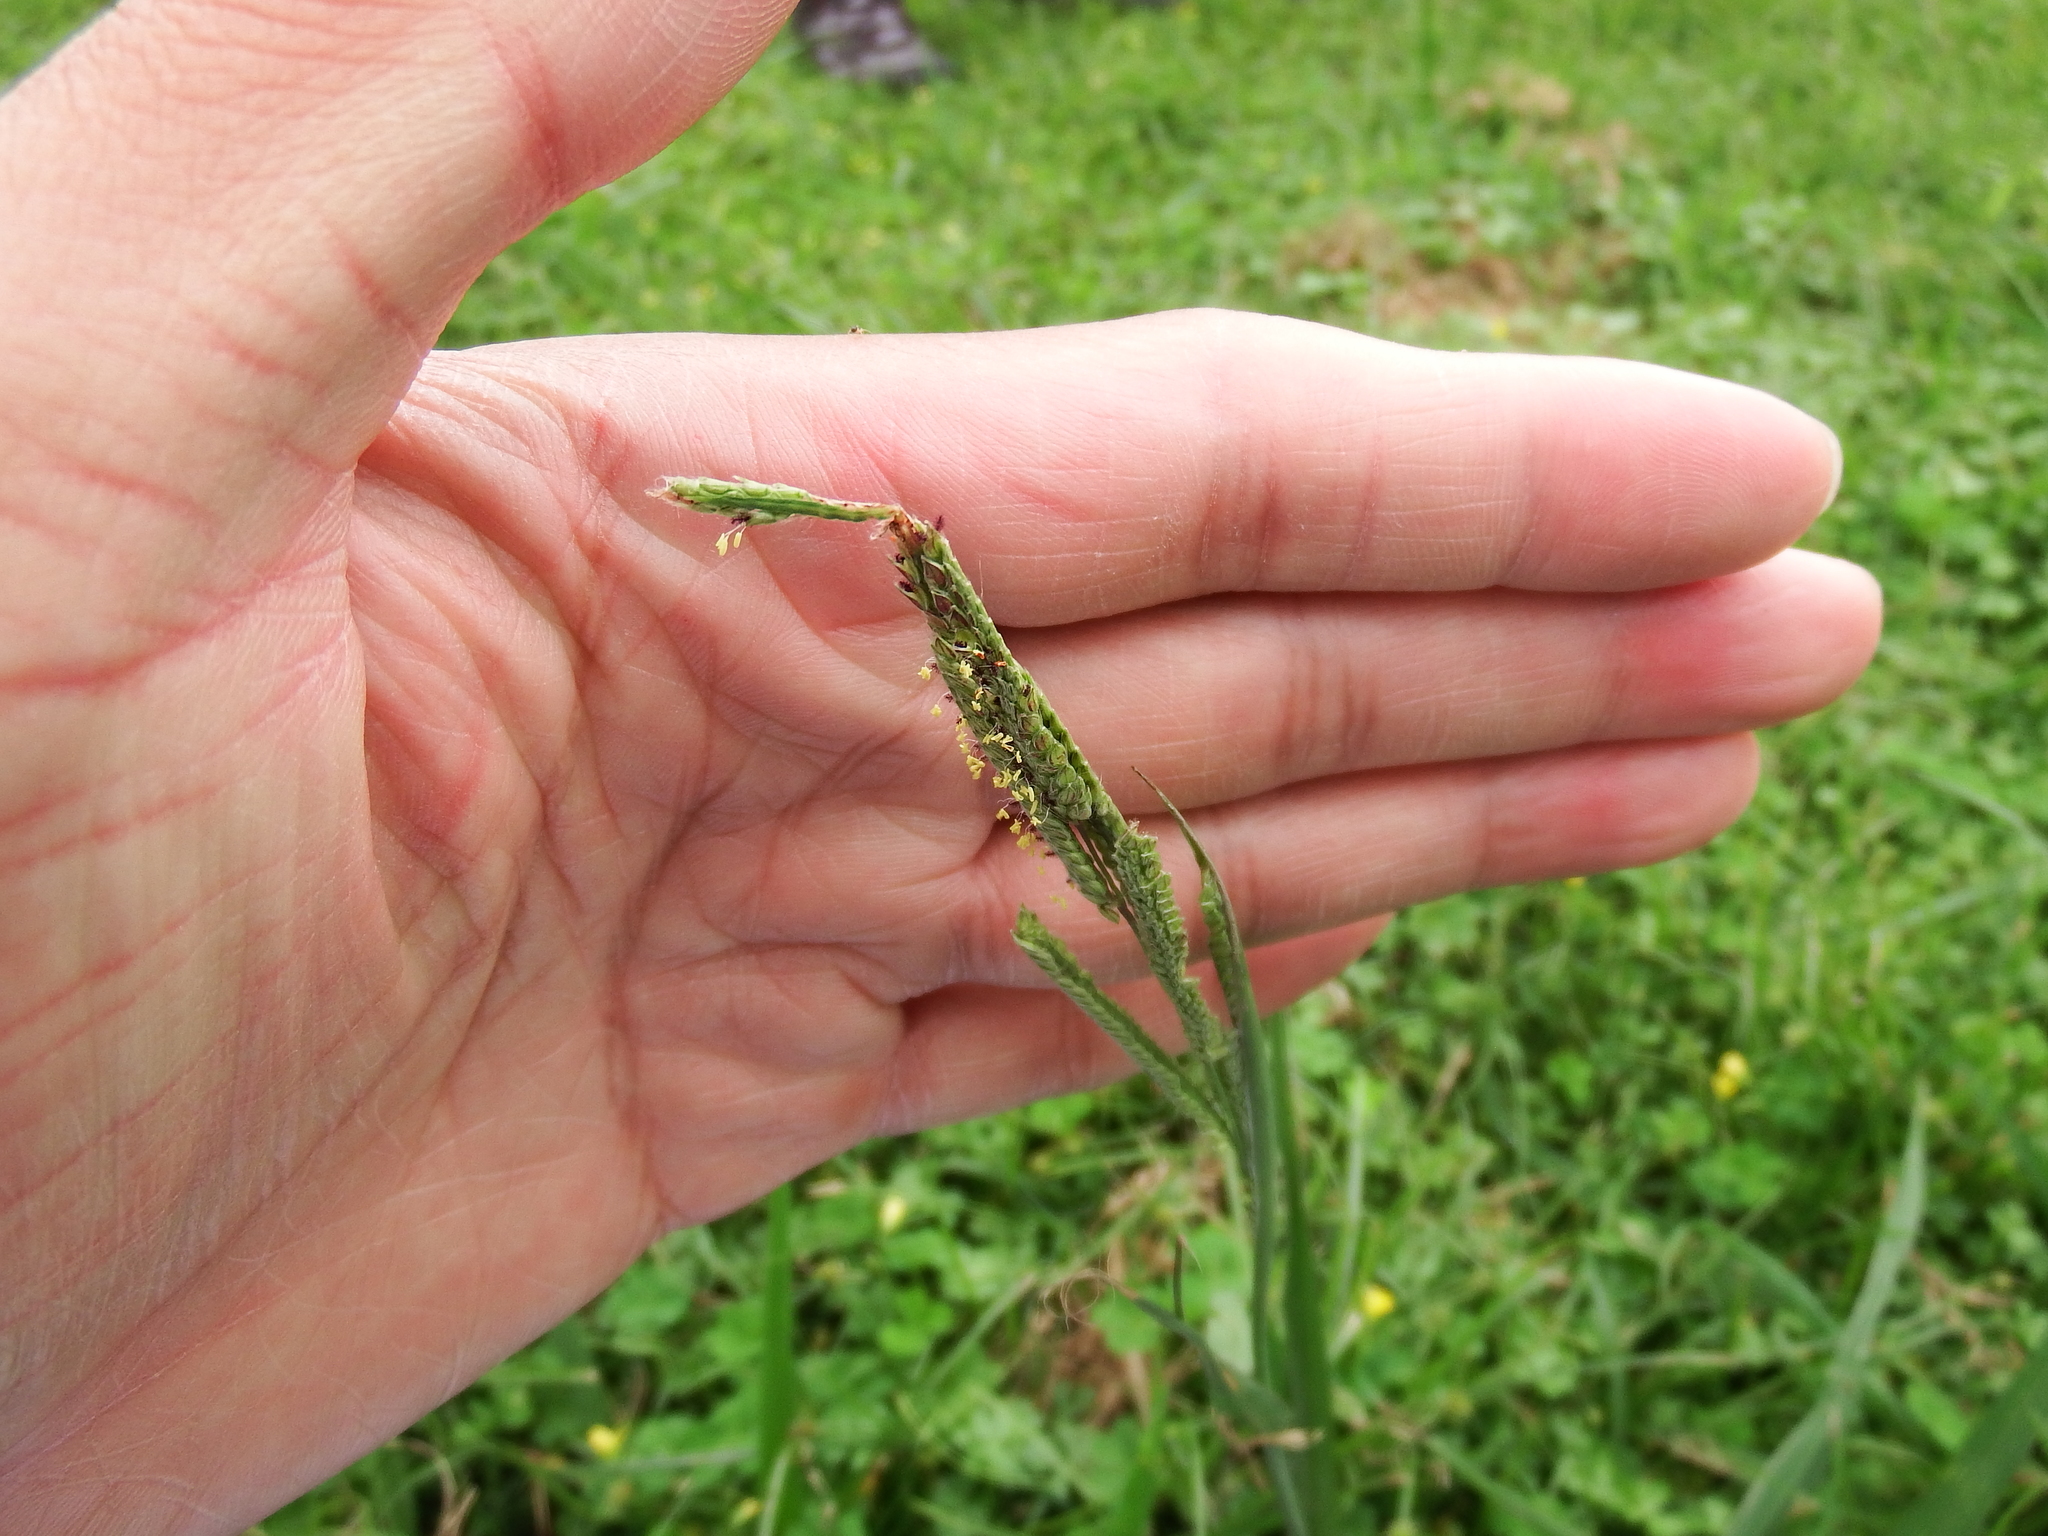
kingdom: Plantae
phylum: Tracheophyta
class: Liliopsida
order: Poales
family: Poaceae
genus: Paspalum
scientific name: Paspalum urvillei
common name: Vasey's grass
